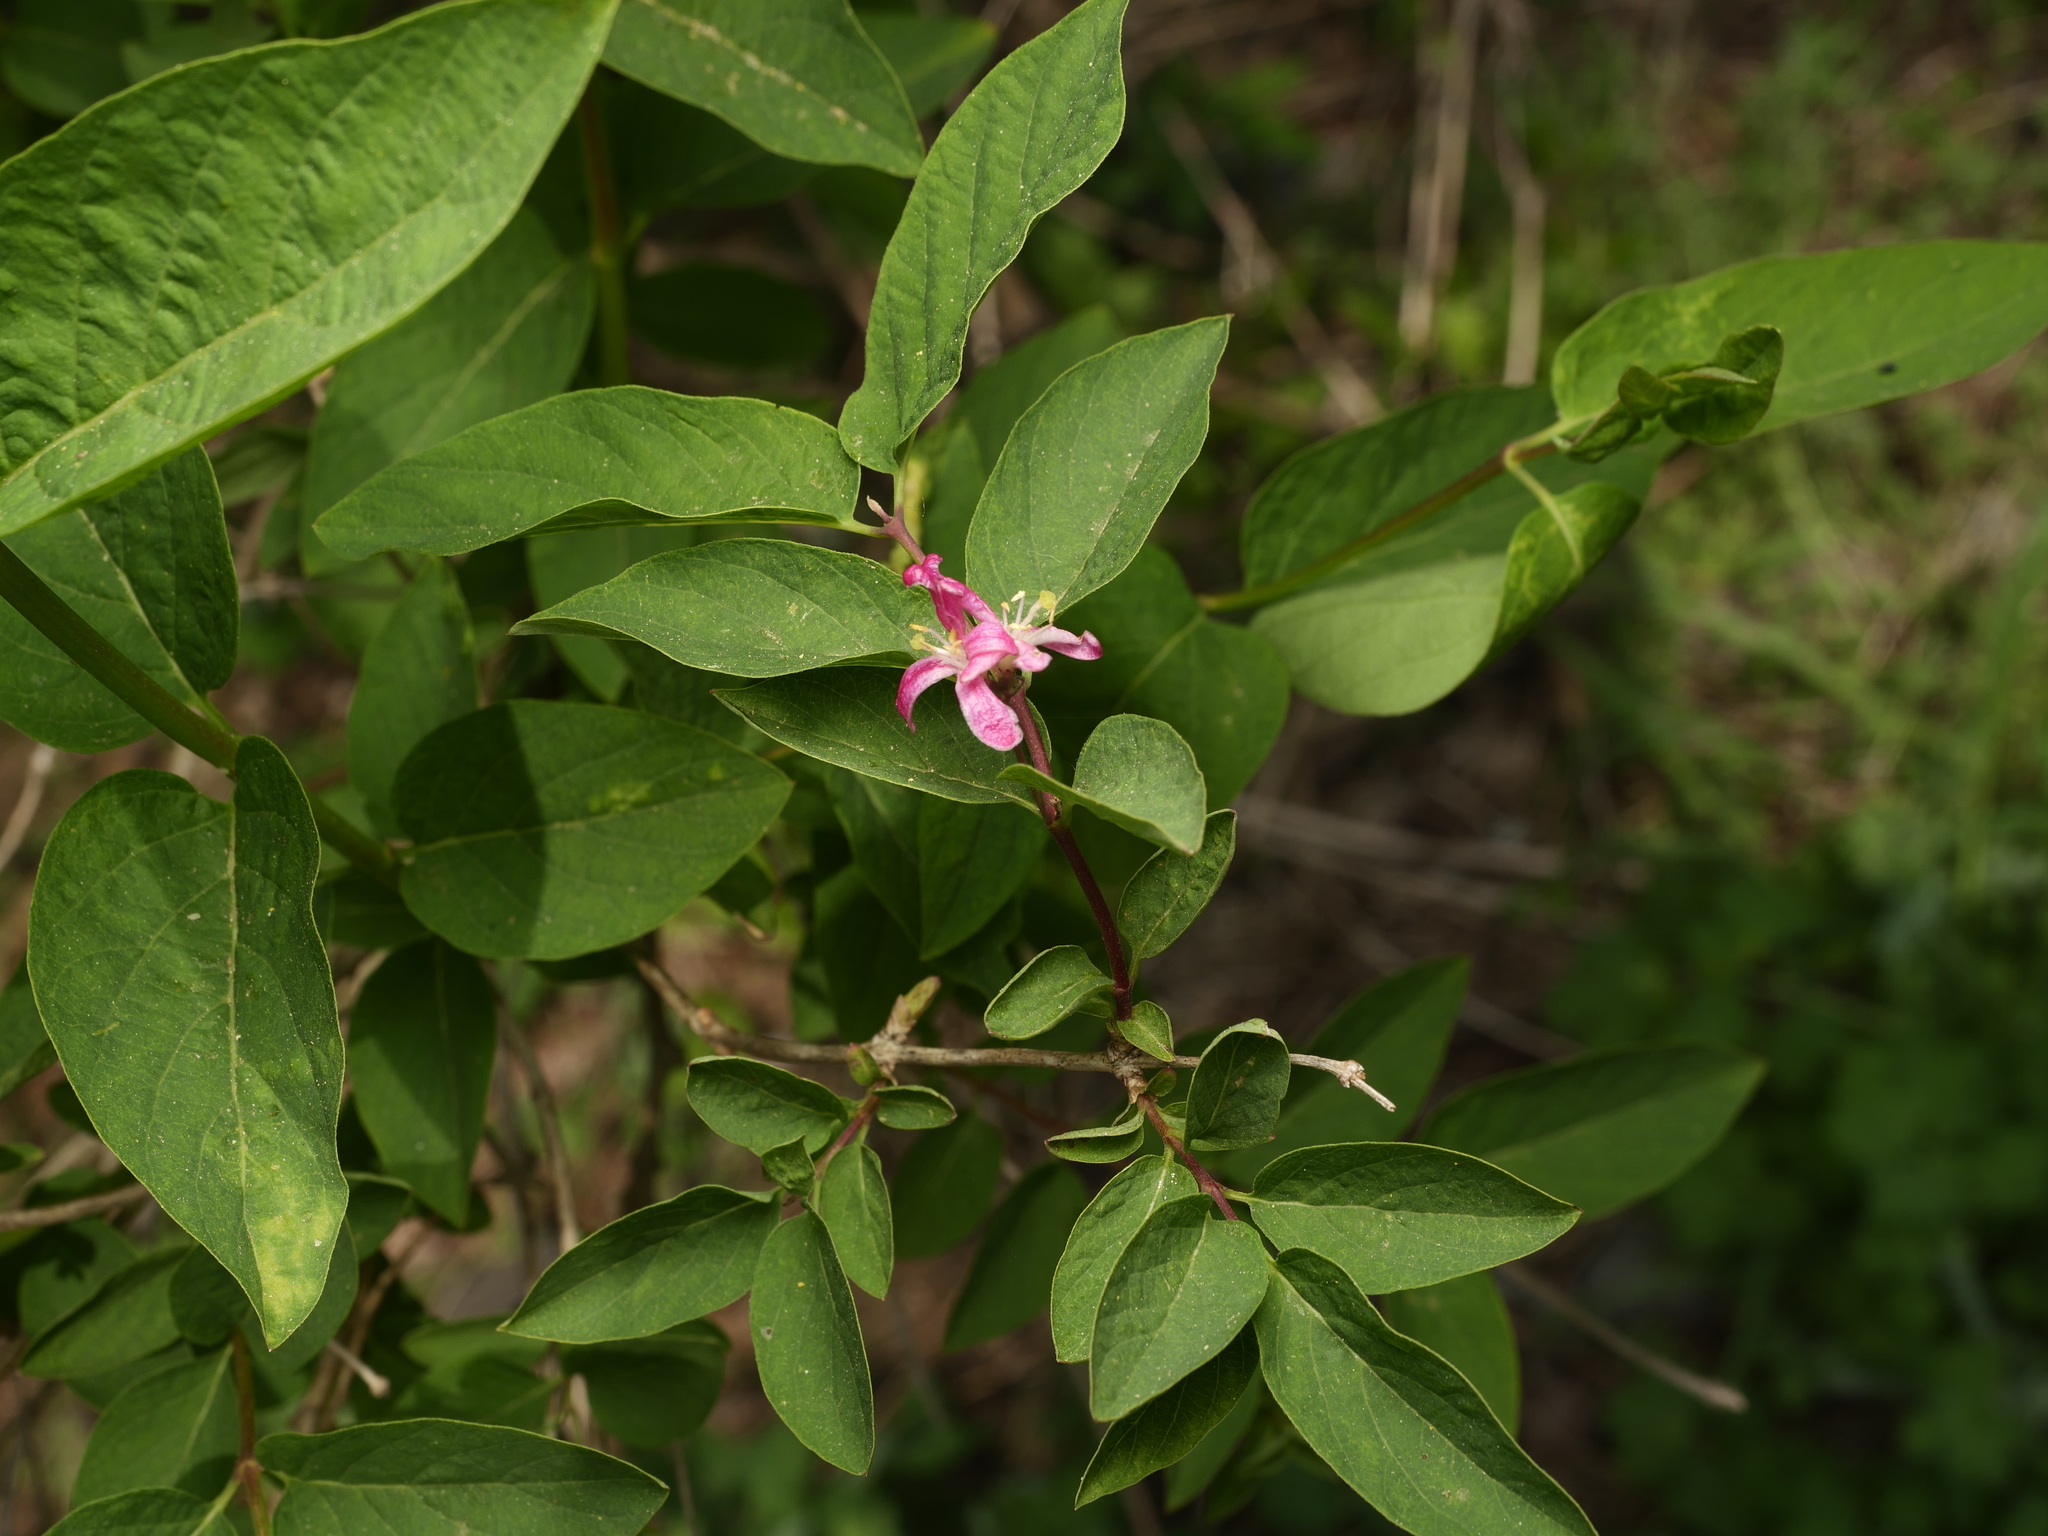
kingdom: Plantae
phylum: Tracheophyta
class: Magnoliopsida
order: Dipsacales
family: Caprifoliaceae
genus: Lonicera
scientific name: Lonicera tatarica
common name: Tatarian honeysuckle
